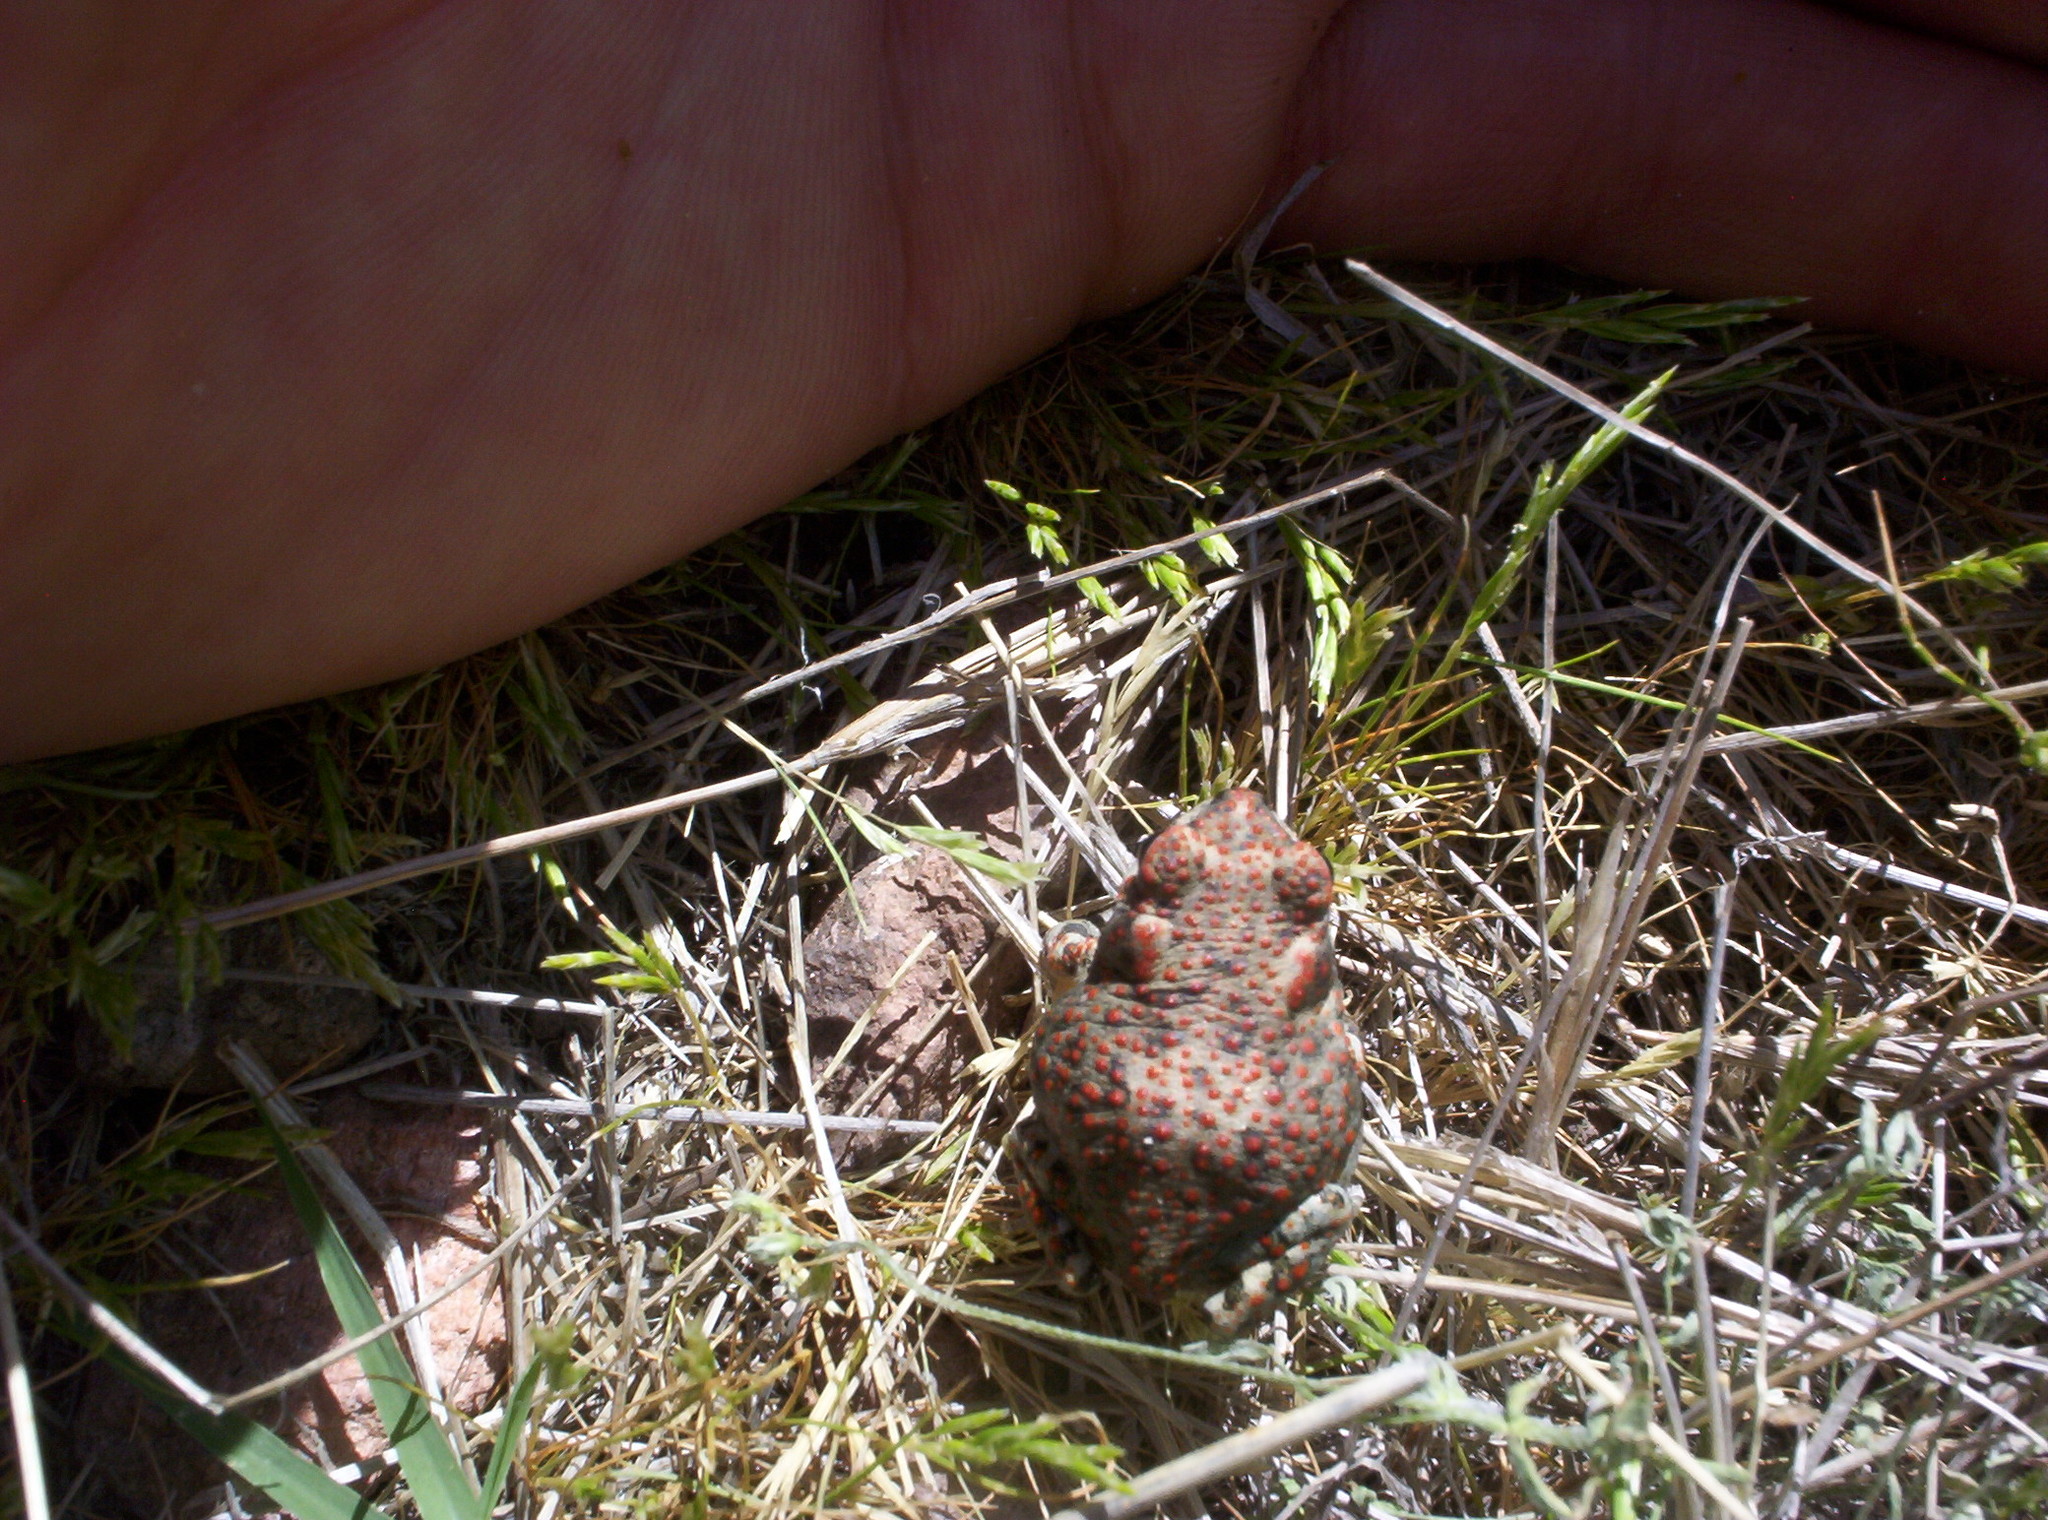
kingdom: Animalia
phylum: Chordata
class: Amphibia
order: Anura
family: Bufonidae
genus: Anaxyrus
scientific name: Anaxyrus punctatus
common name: Red-spotted toad
